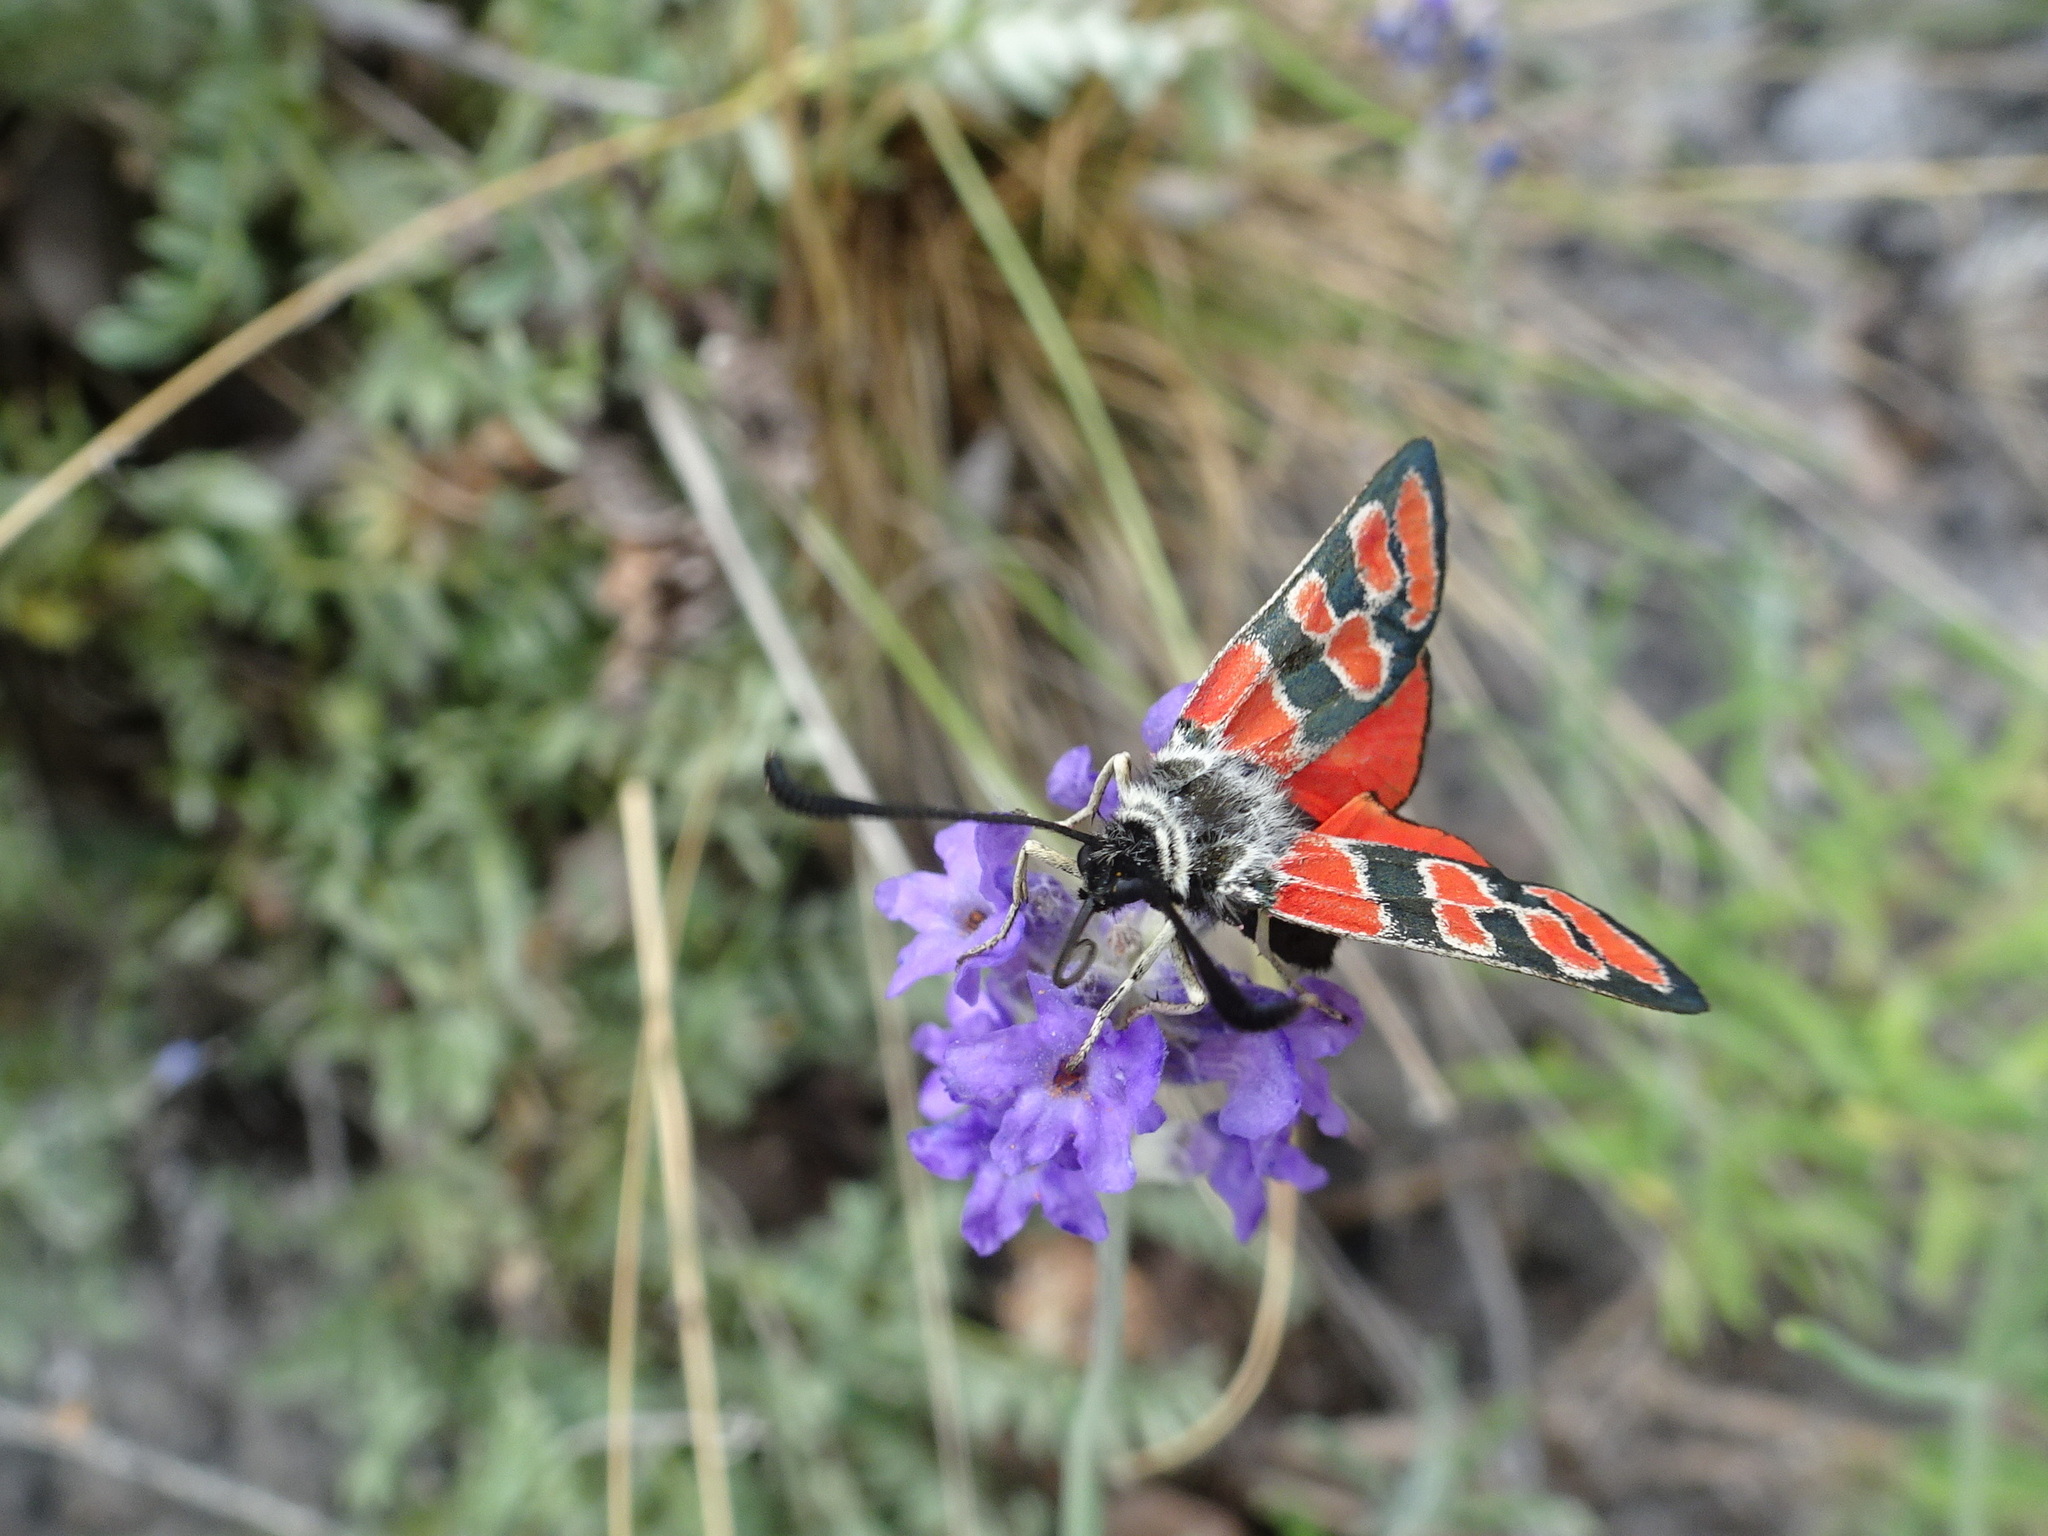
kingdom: Animalia
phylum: Arthropoda
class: Insecta
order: Lepidoptera
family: Zygaenidae
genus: Zygaena
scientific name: Zygaena carniolica
